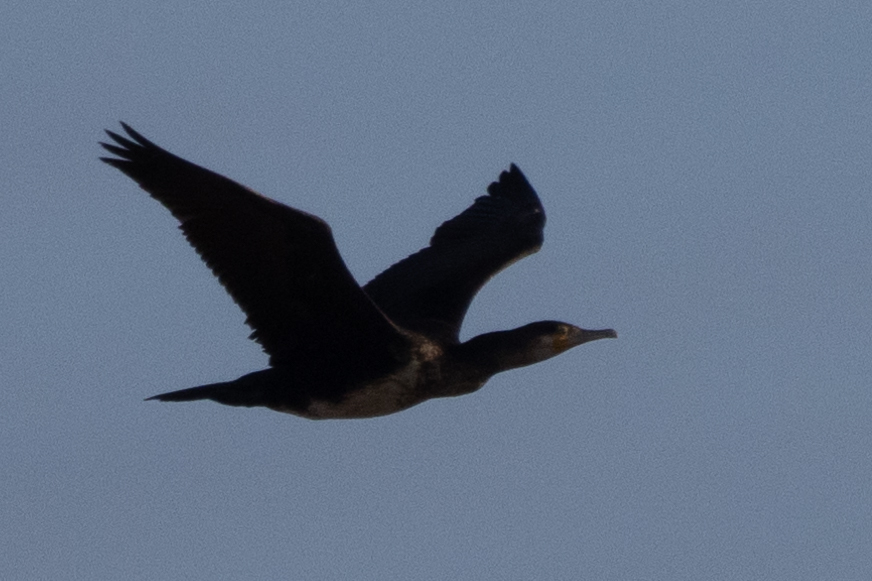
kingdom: Animalia
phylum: Chordata
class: Aves
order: Suliformes
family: Phalacrocoracidae
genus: Phalacrocorax
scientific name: Phalacrocorax carbo
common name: Great cormorant
